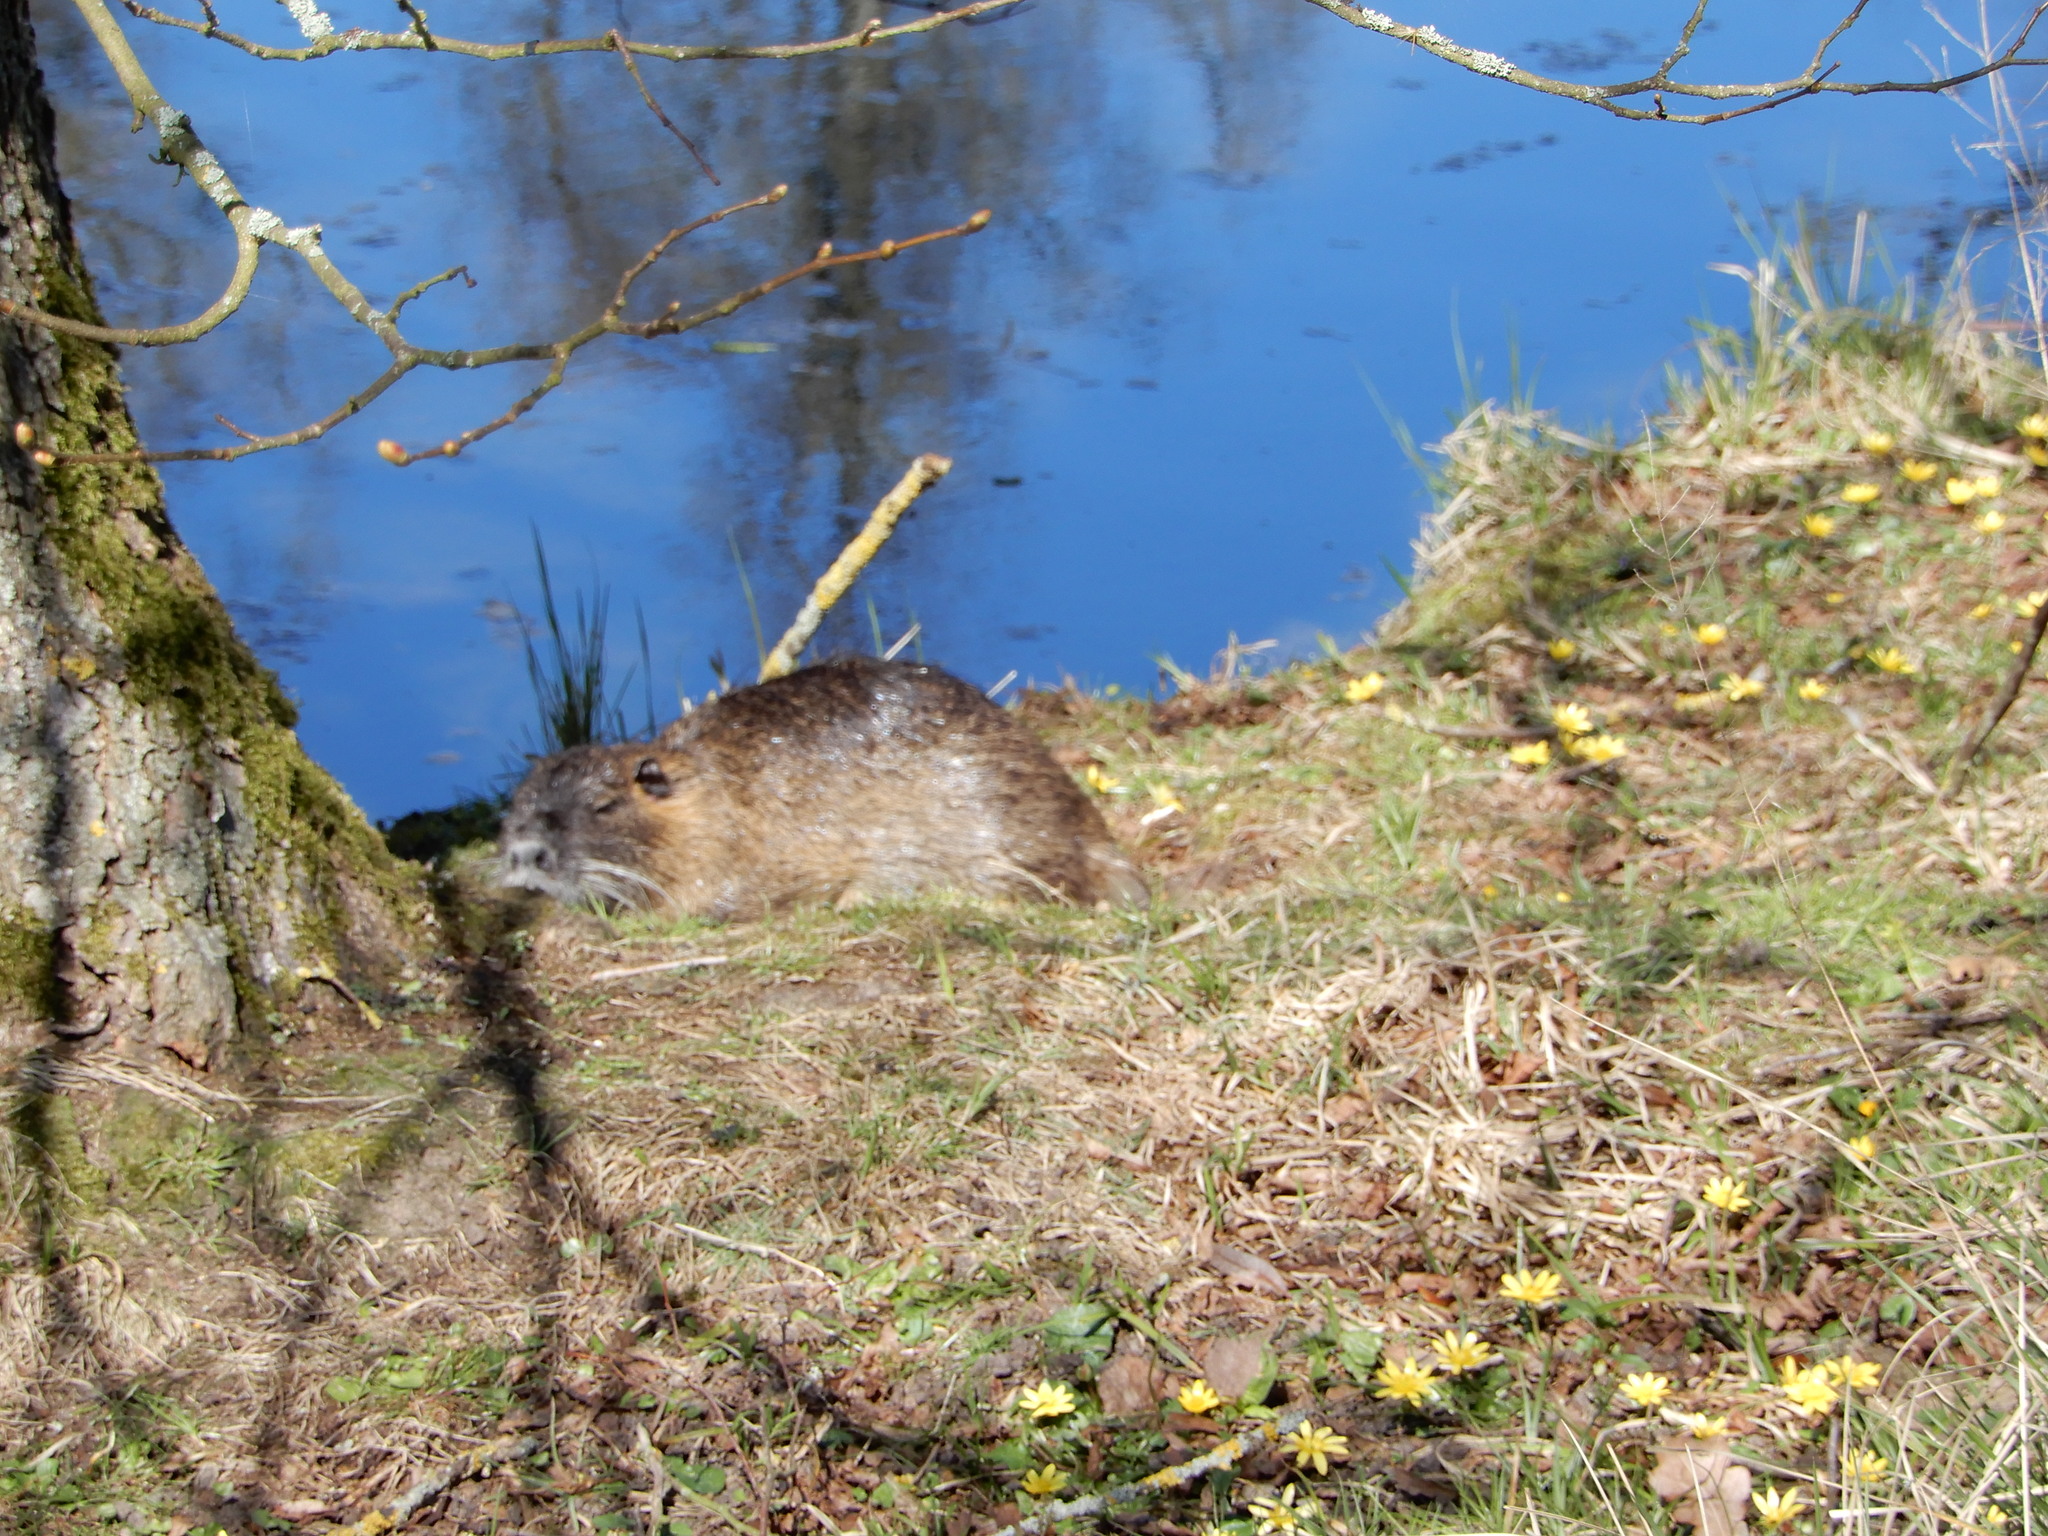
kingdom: Animalia
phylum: Chordata
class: Mammalia
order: Rodentia
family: Myocastoridae
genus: Myocastor
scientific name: Myocastor coypus
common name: Coypu
